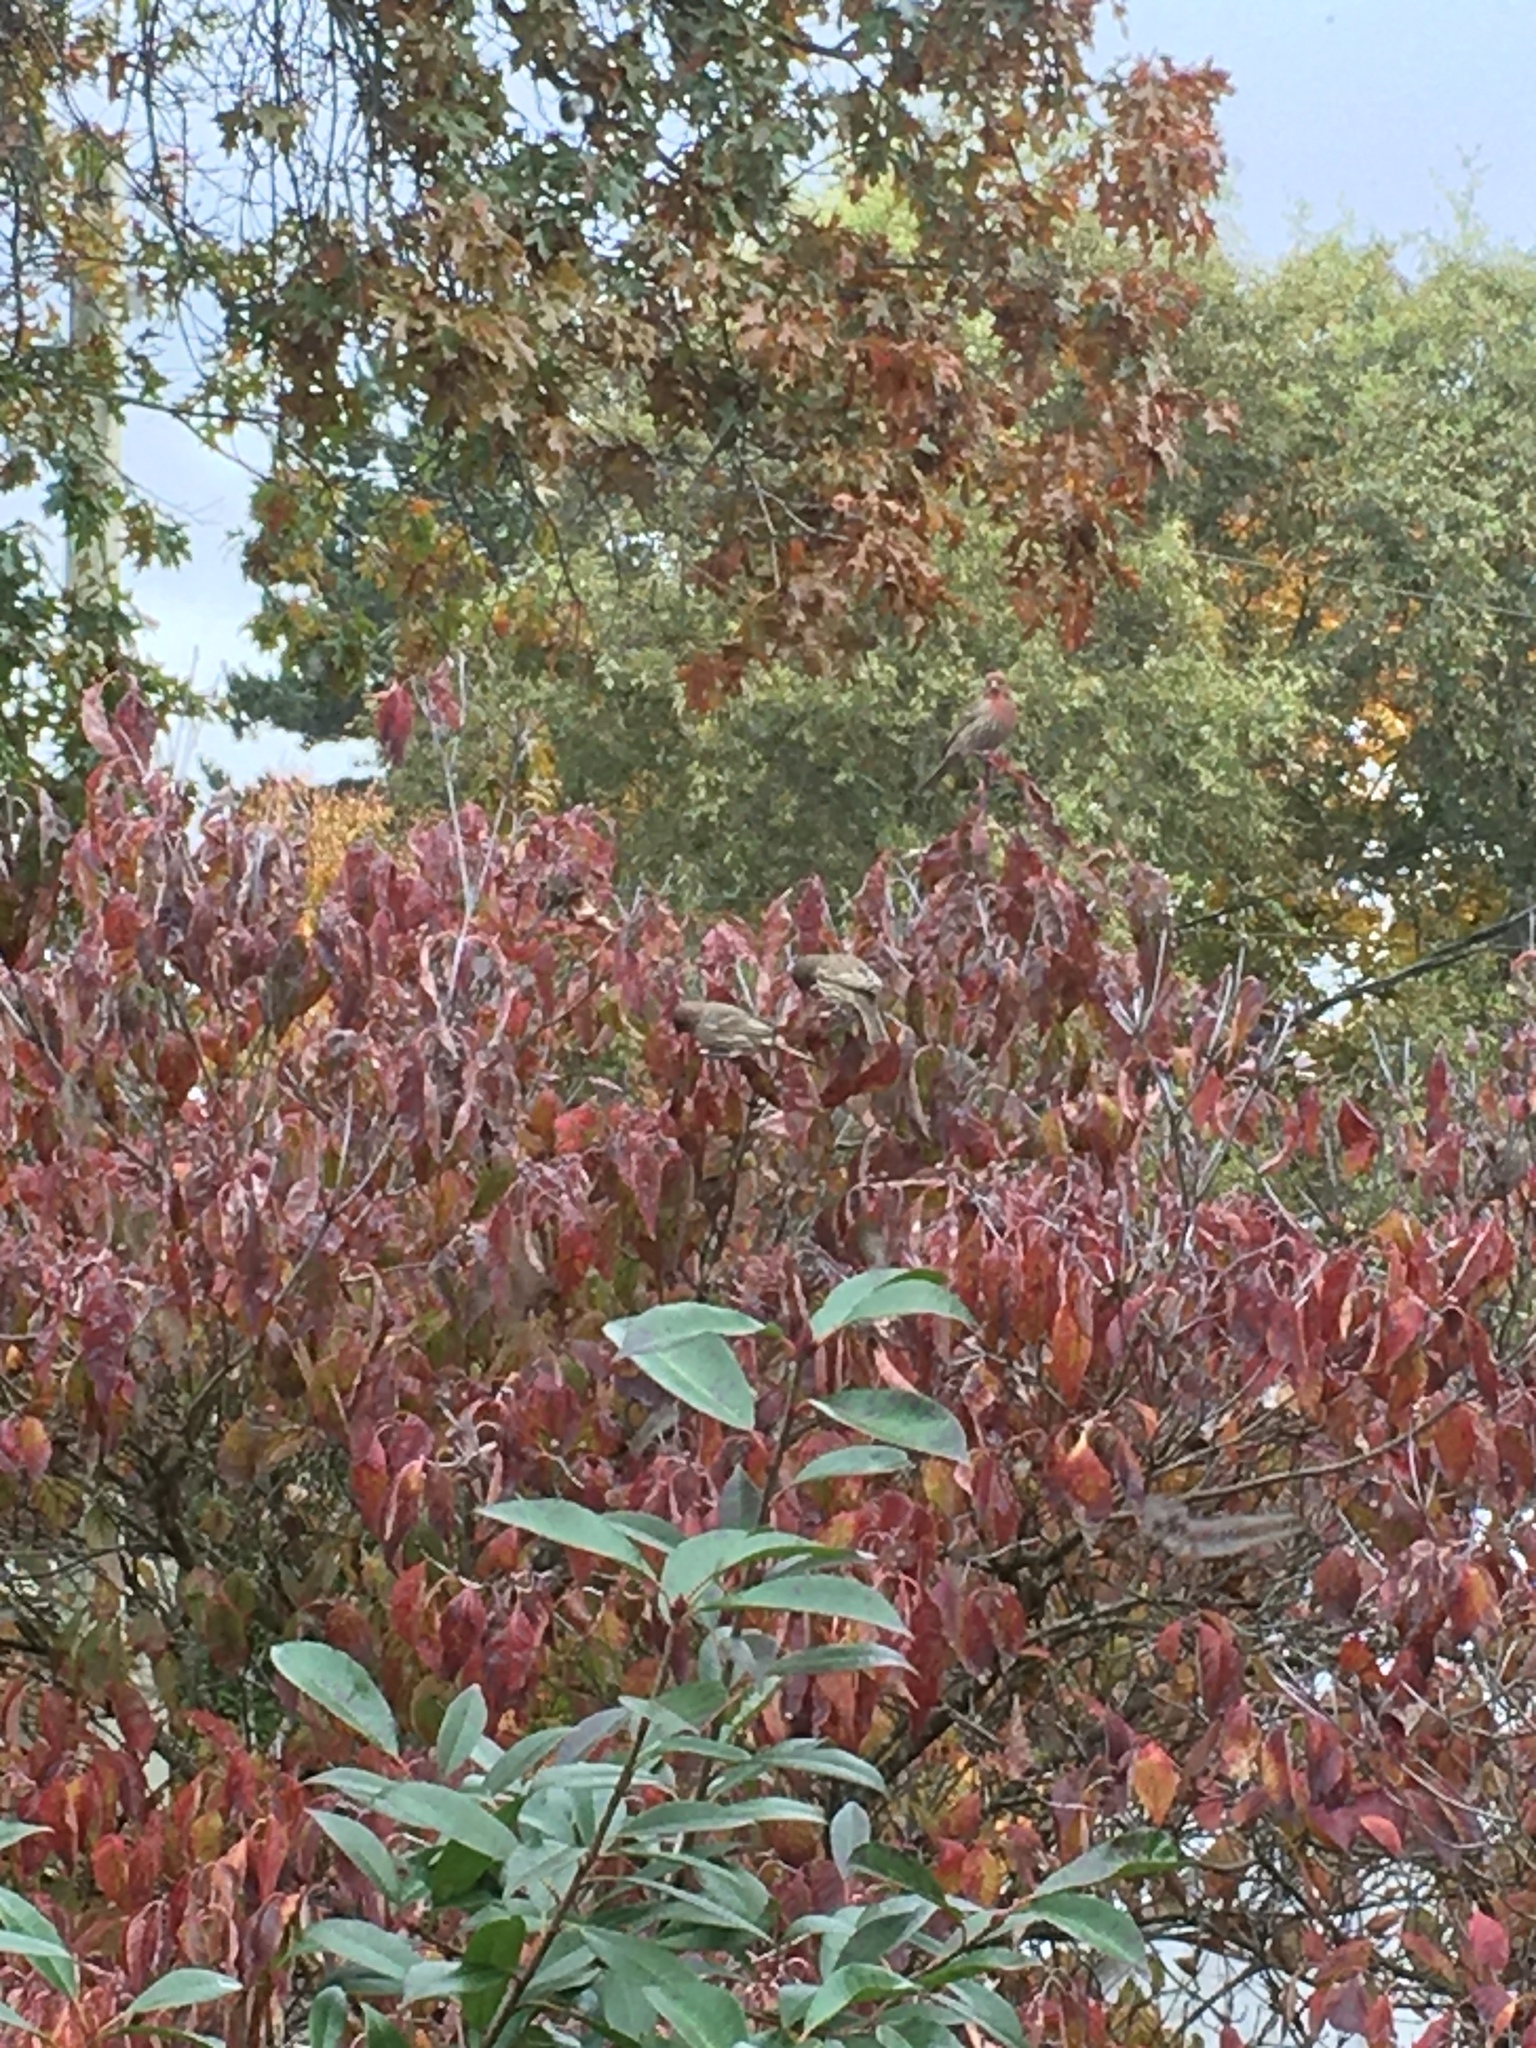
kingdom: Animalia
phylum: Chordata
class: Aves
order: Passeriformes
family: Fringillidae
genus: Haemorhous
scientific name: Haemorhous mexicanus
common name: House finch
